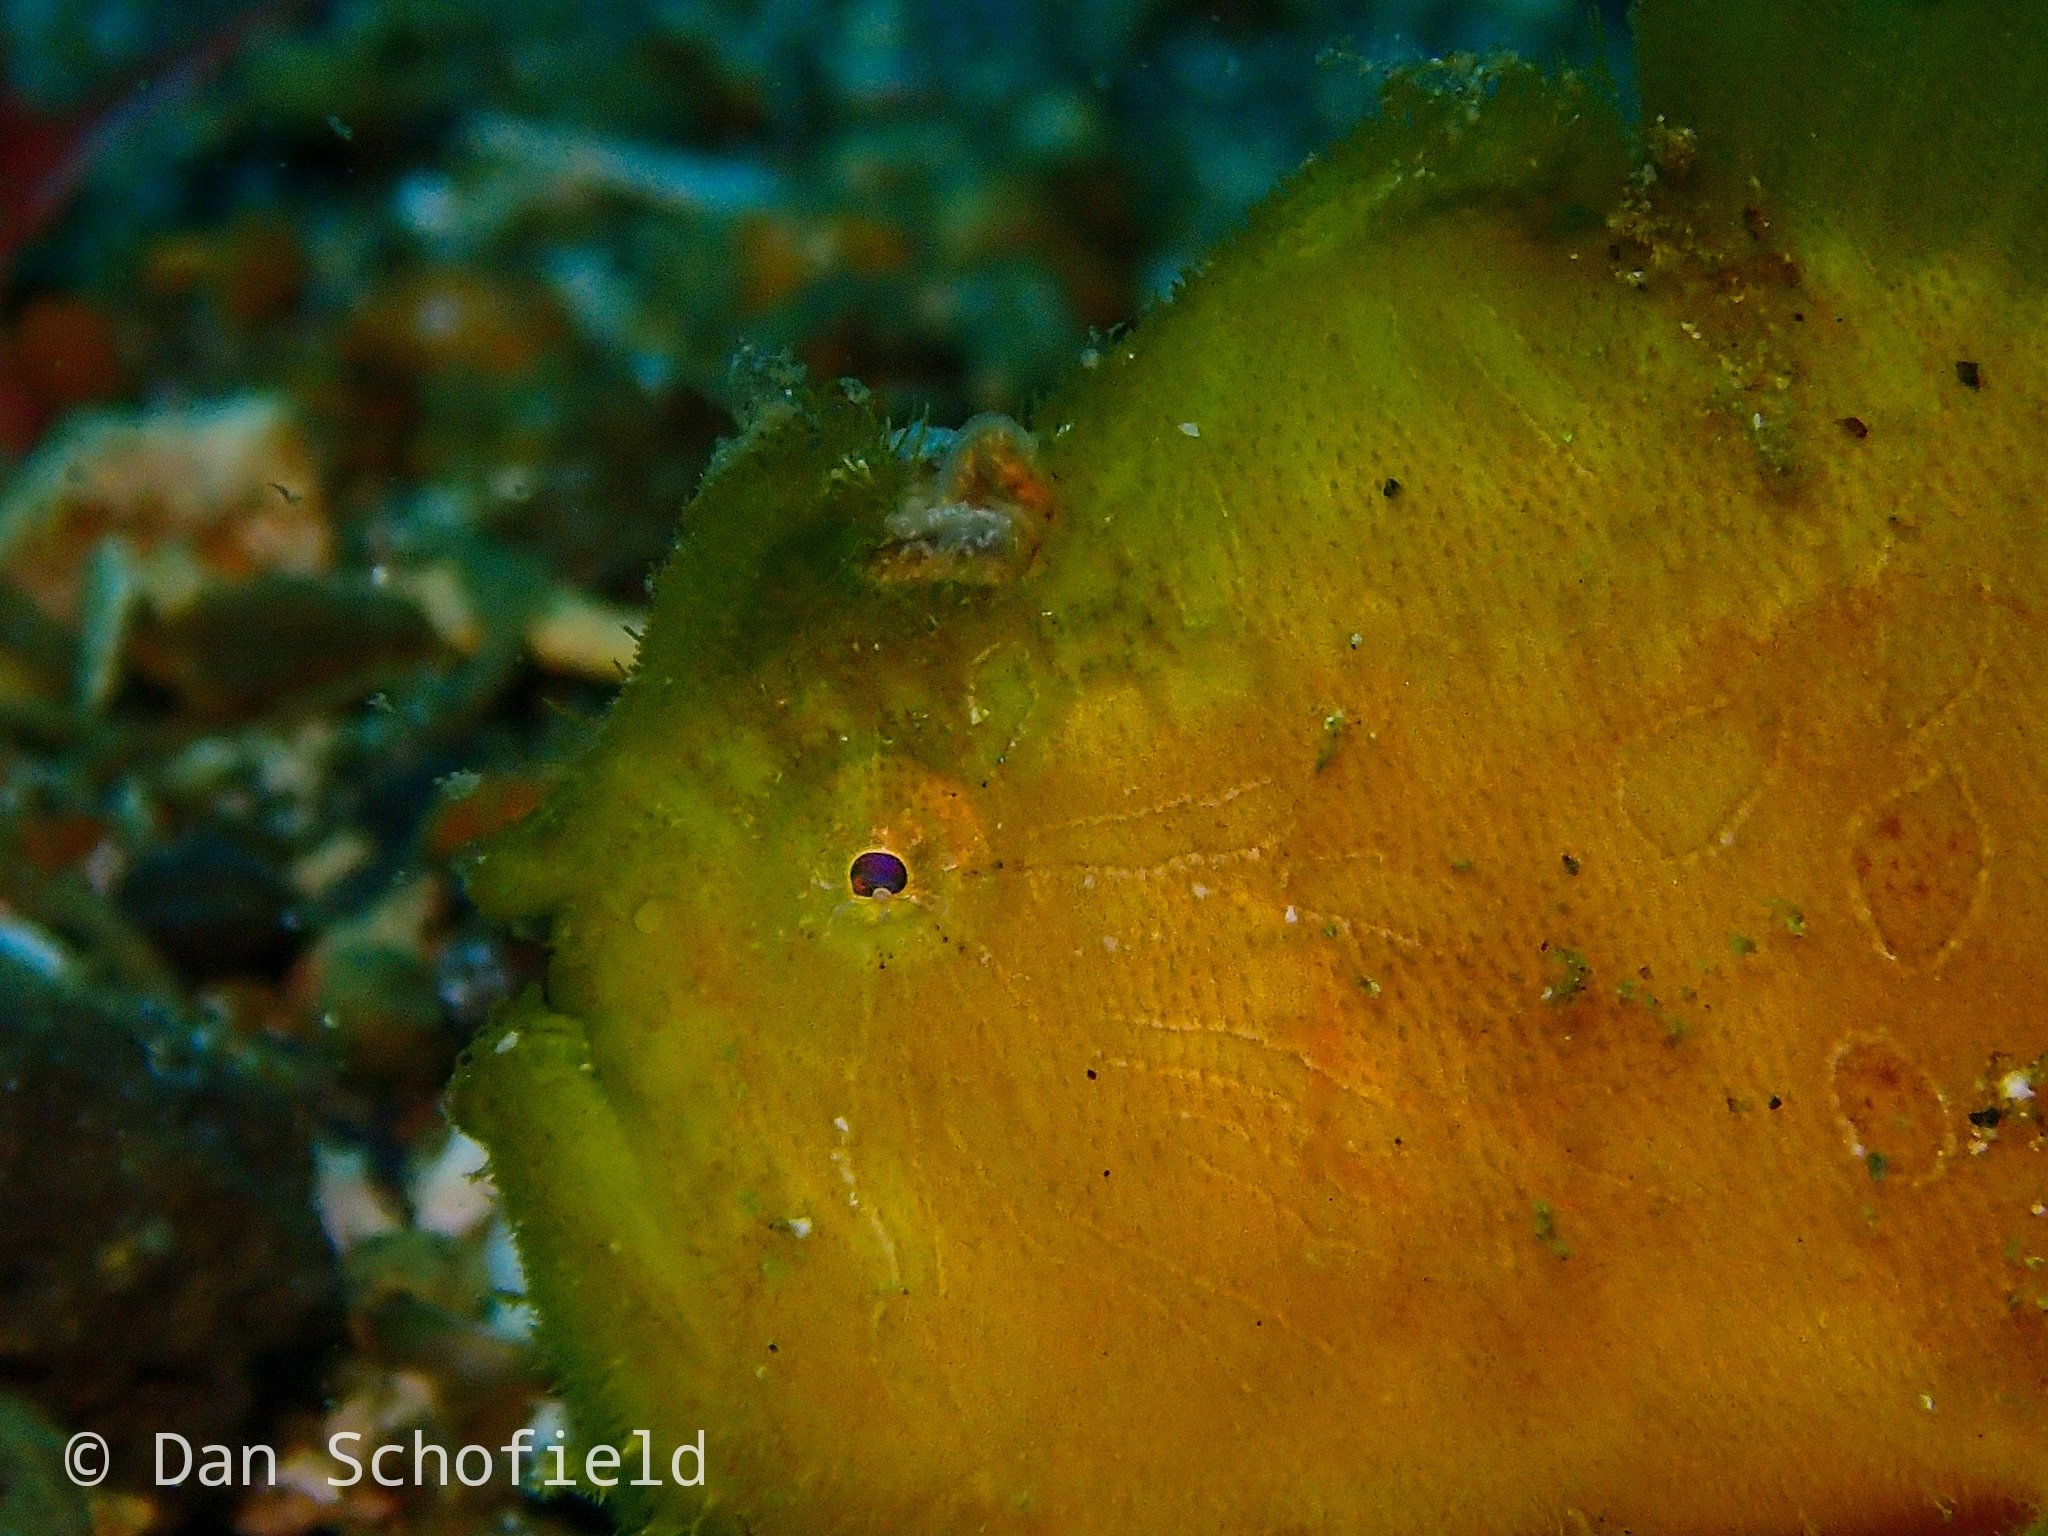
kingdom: Animalia
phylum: Chordata
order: Lophiiformes
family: Antennariidae
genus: Antennarius
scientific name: Antennarius striatus
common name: Striated frogfish
